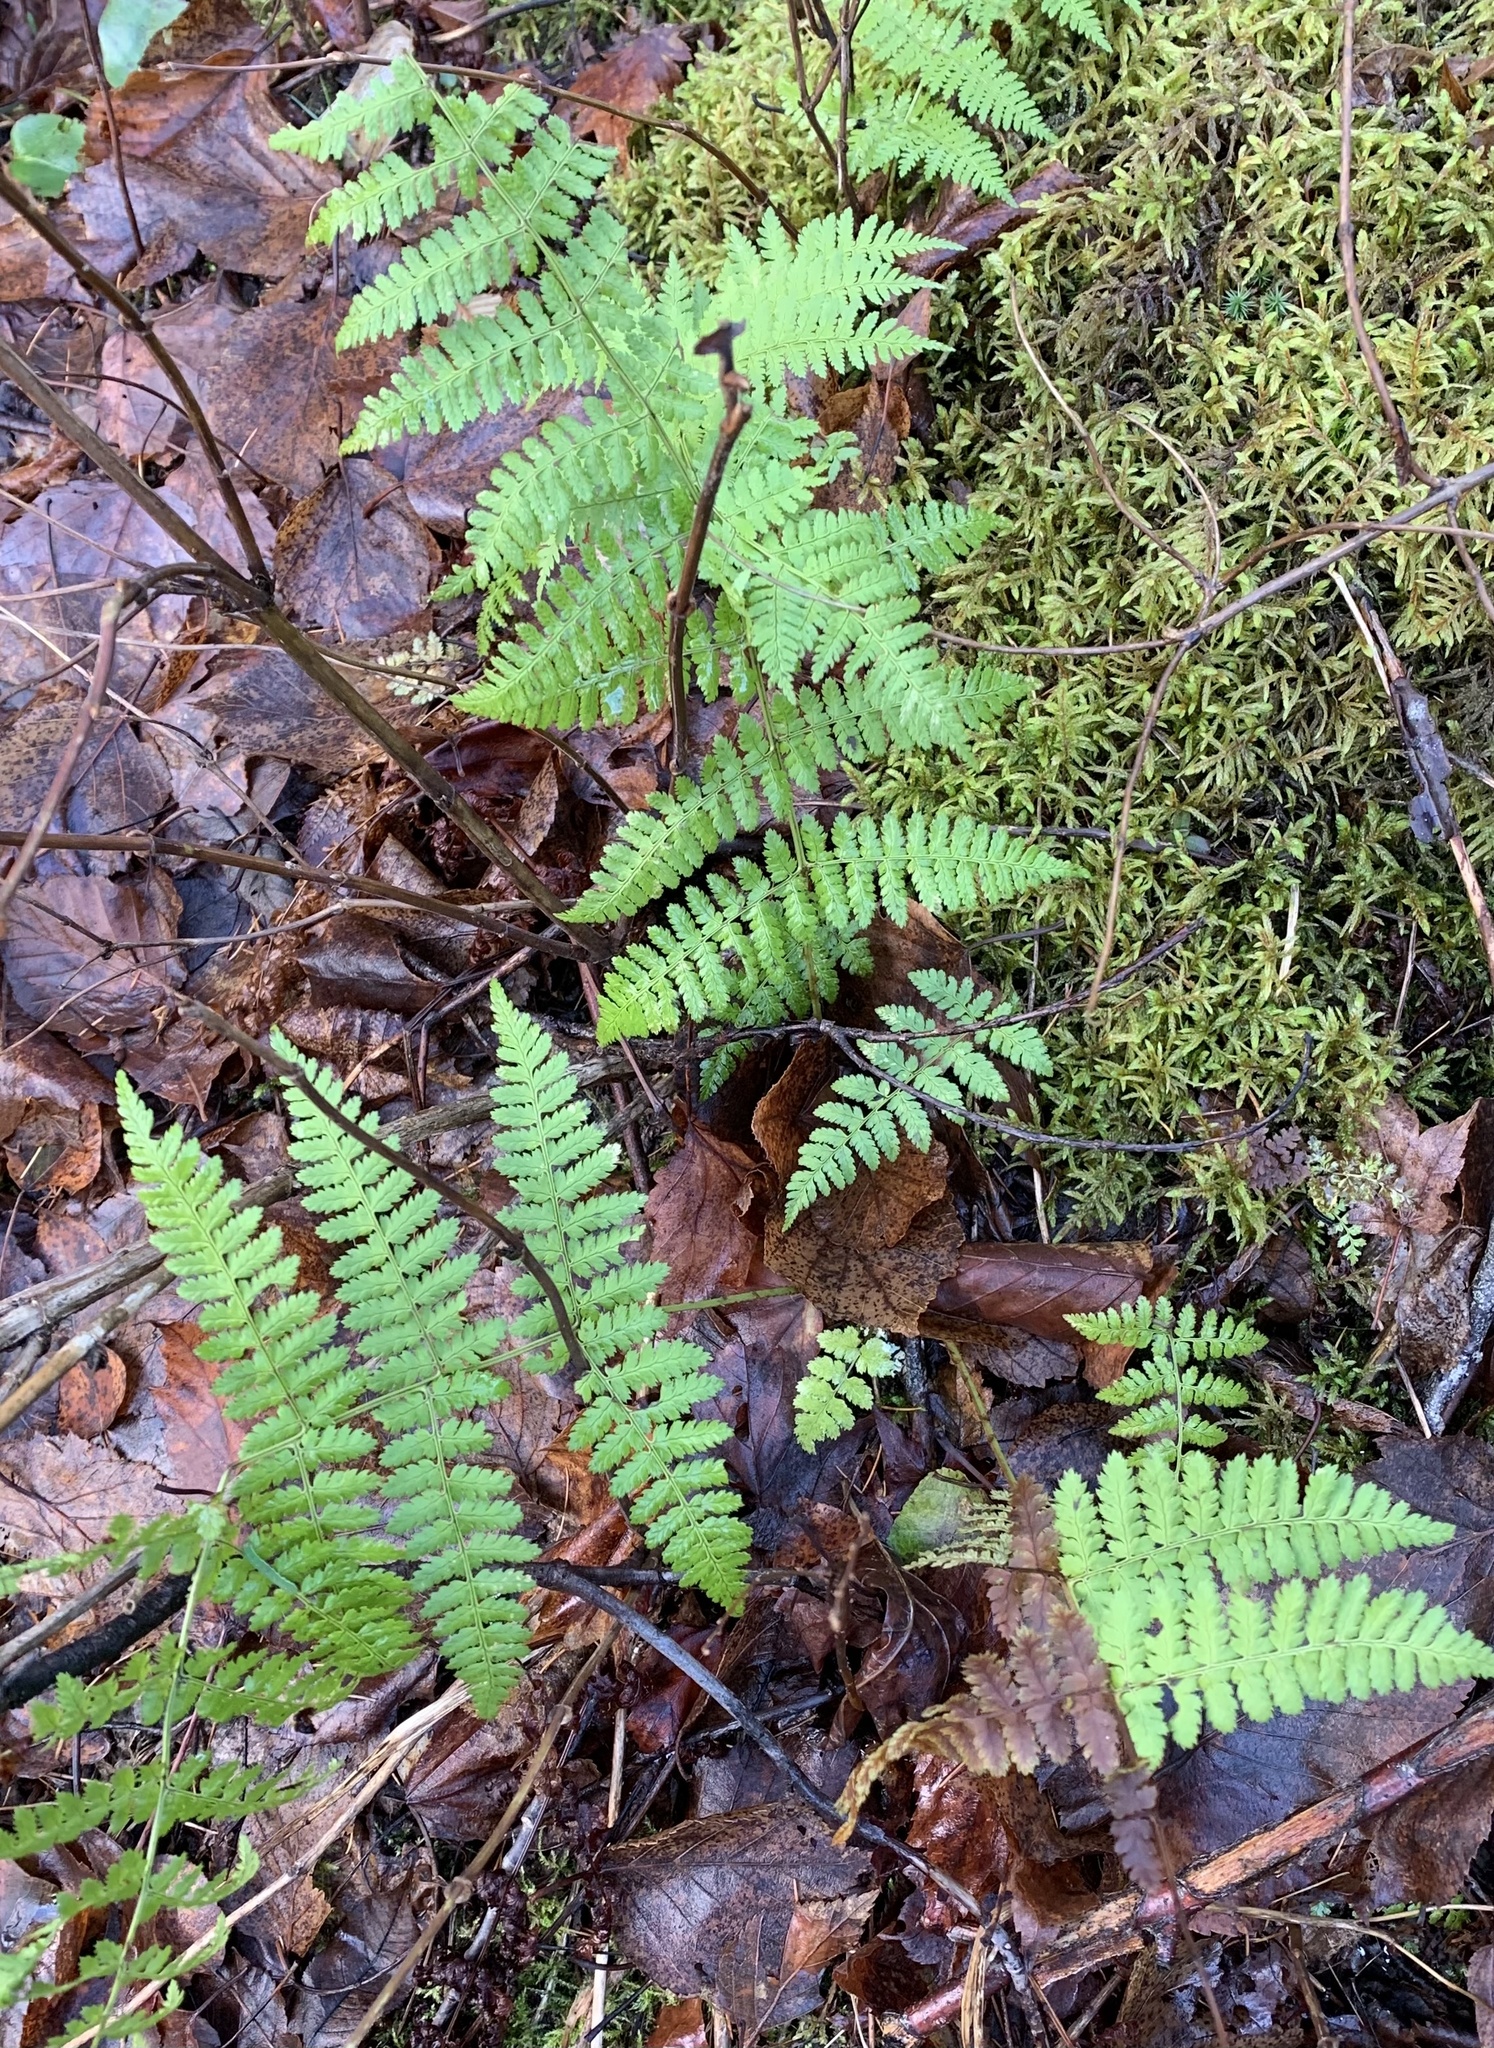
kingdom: Plantae
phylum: Tracheophyta
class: Polypodiopsida
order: Polypodiales
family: Dryopteridaceae
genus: Dryopteris
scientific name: Dryopteris intermedia
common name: Evergreen wood fern
